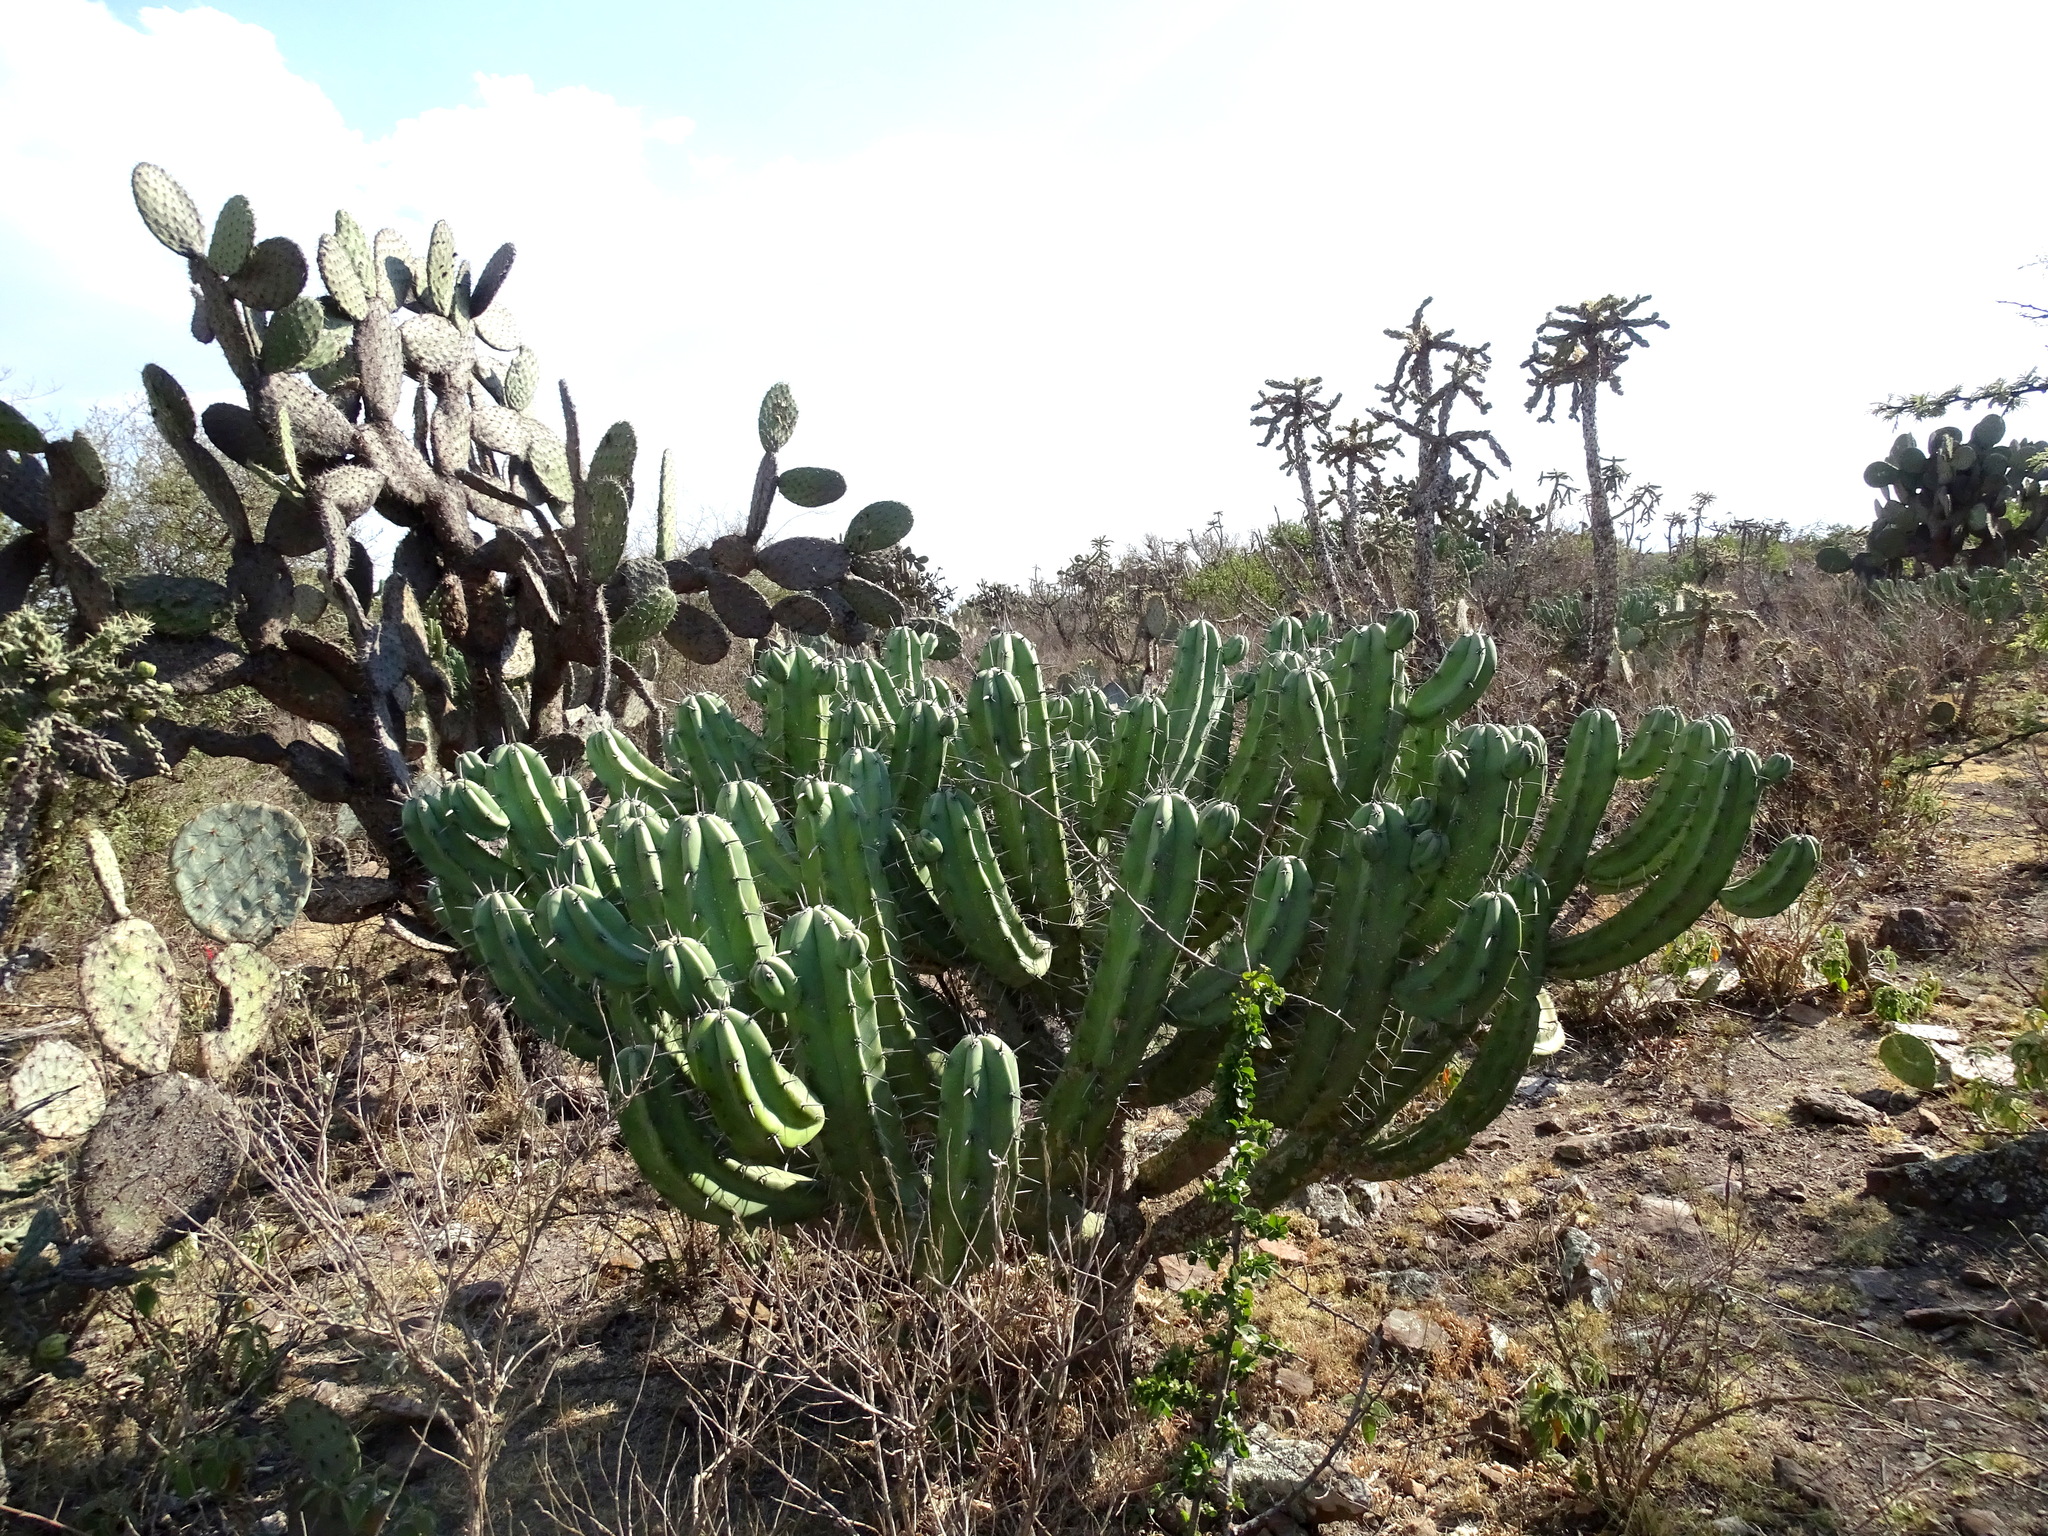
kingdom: Plantae
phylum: Tracheophyta
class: Magnoliopsida
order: Caryophyllales
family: Cactaceae
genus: Myrtillocactus
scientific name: Myrtillocactus geometrizans
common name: Bilberry cactus
